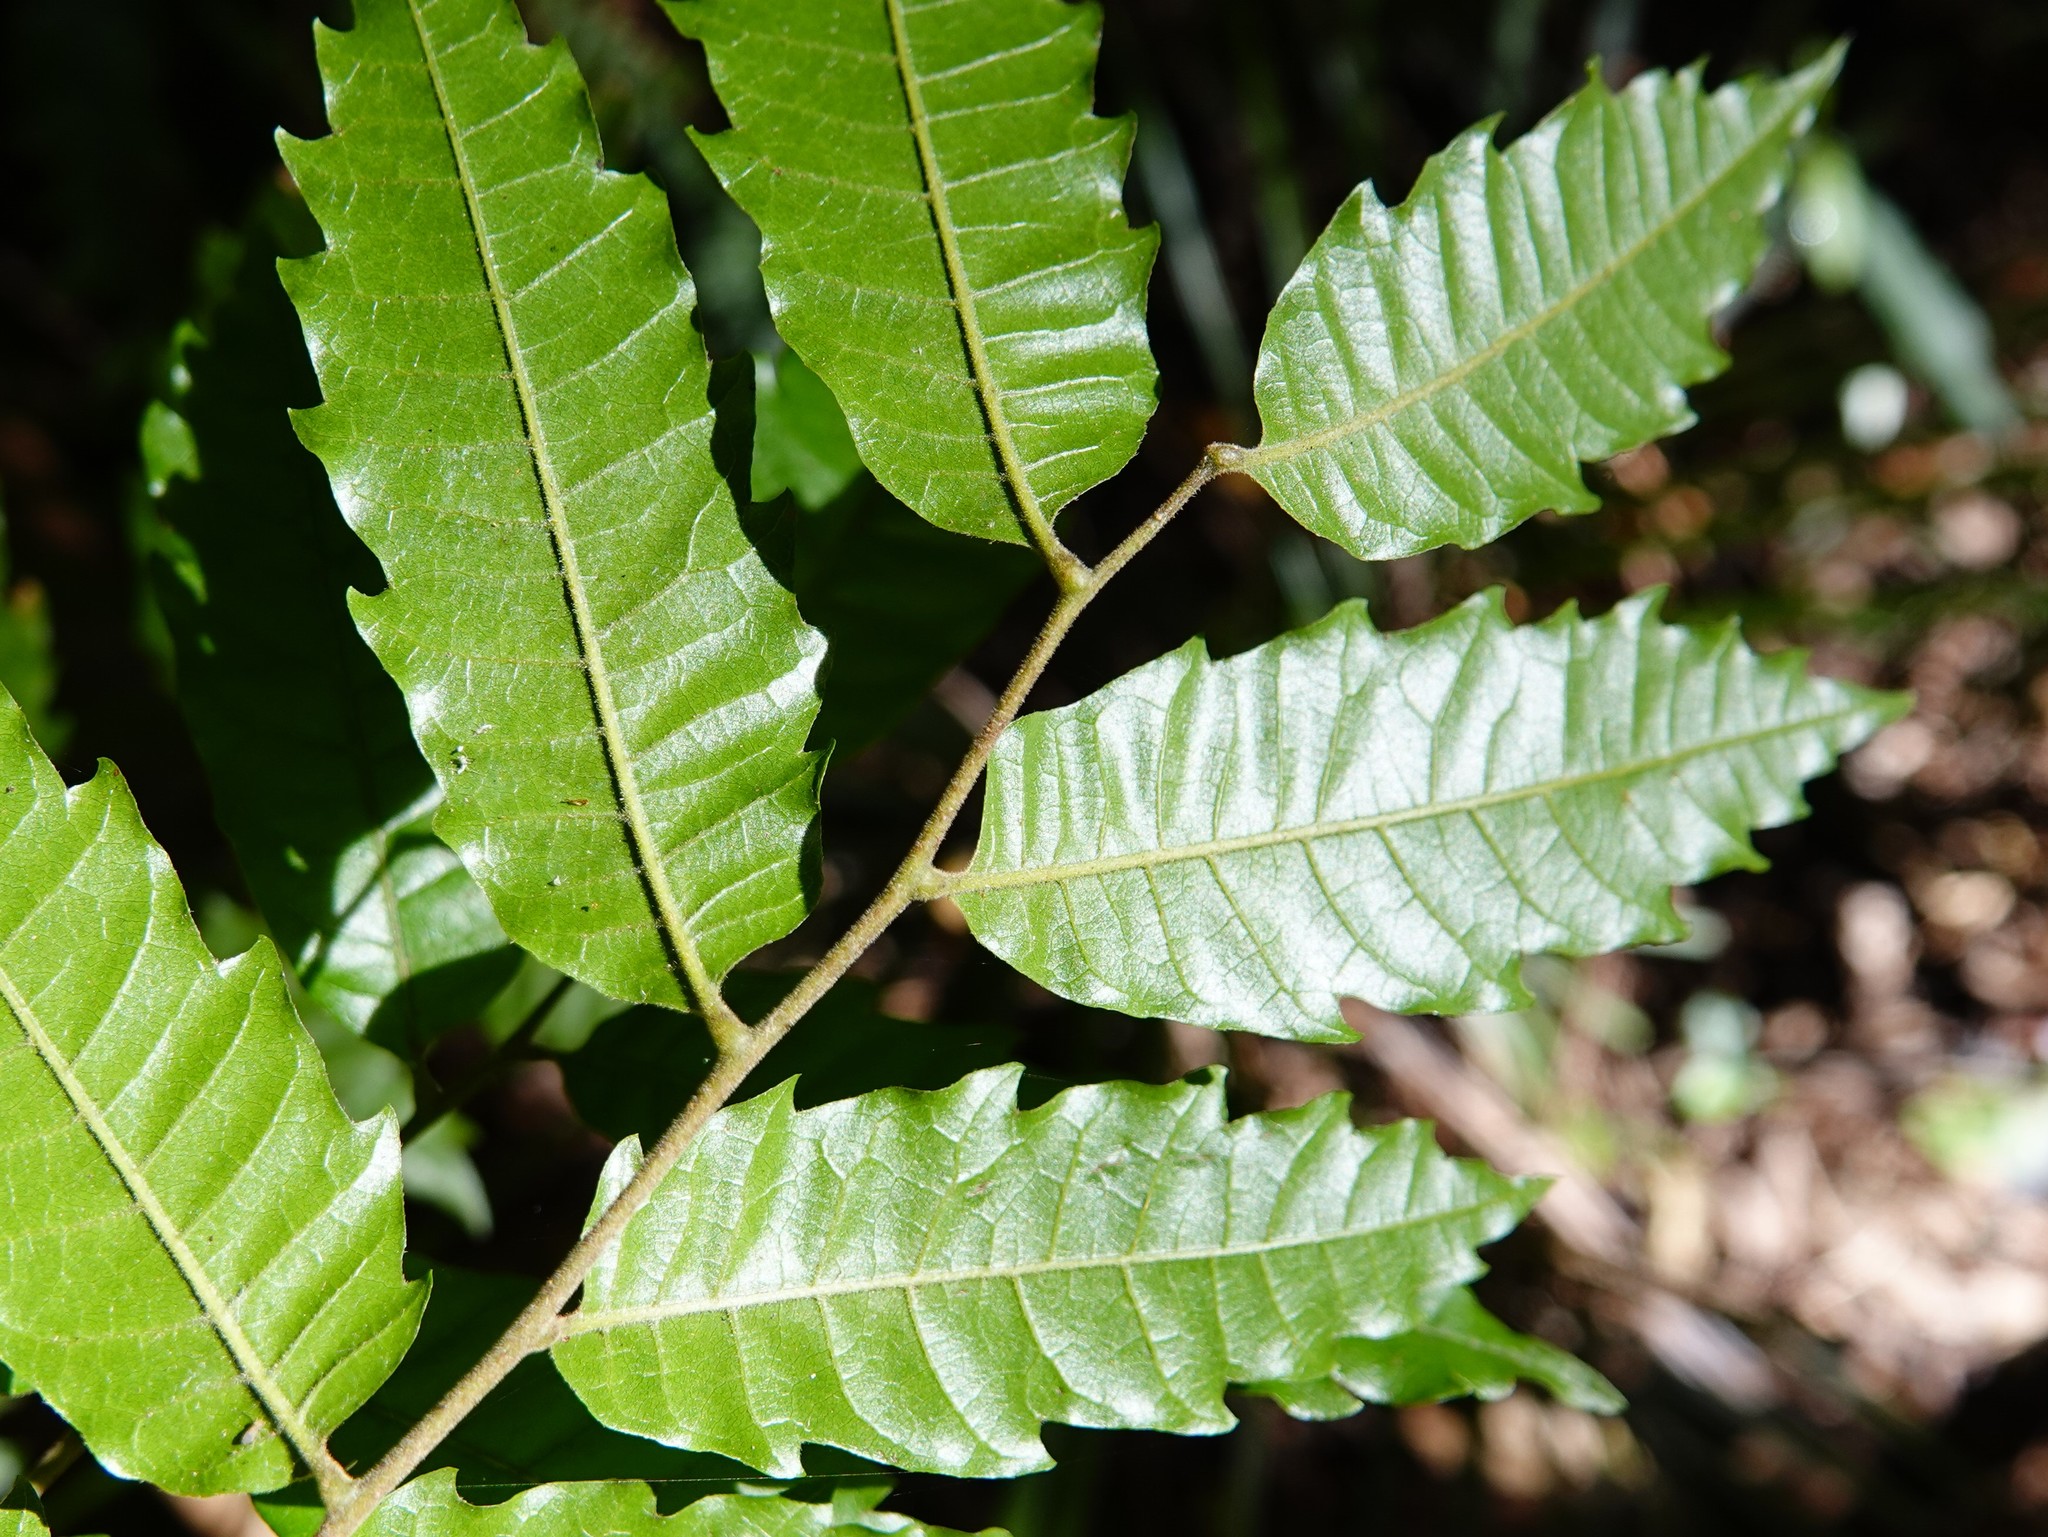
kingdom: Plantae
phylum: Tracheophyta
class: Magnoliopsida
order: Sapindales
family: Sapindaceae
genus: Alectryon
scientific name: Alectryon excelsus
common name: Three kings titoki
